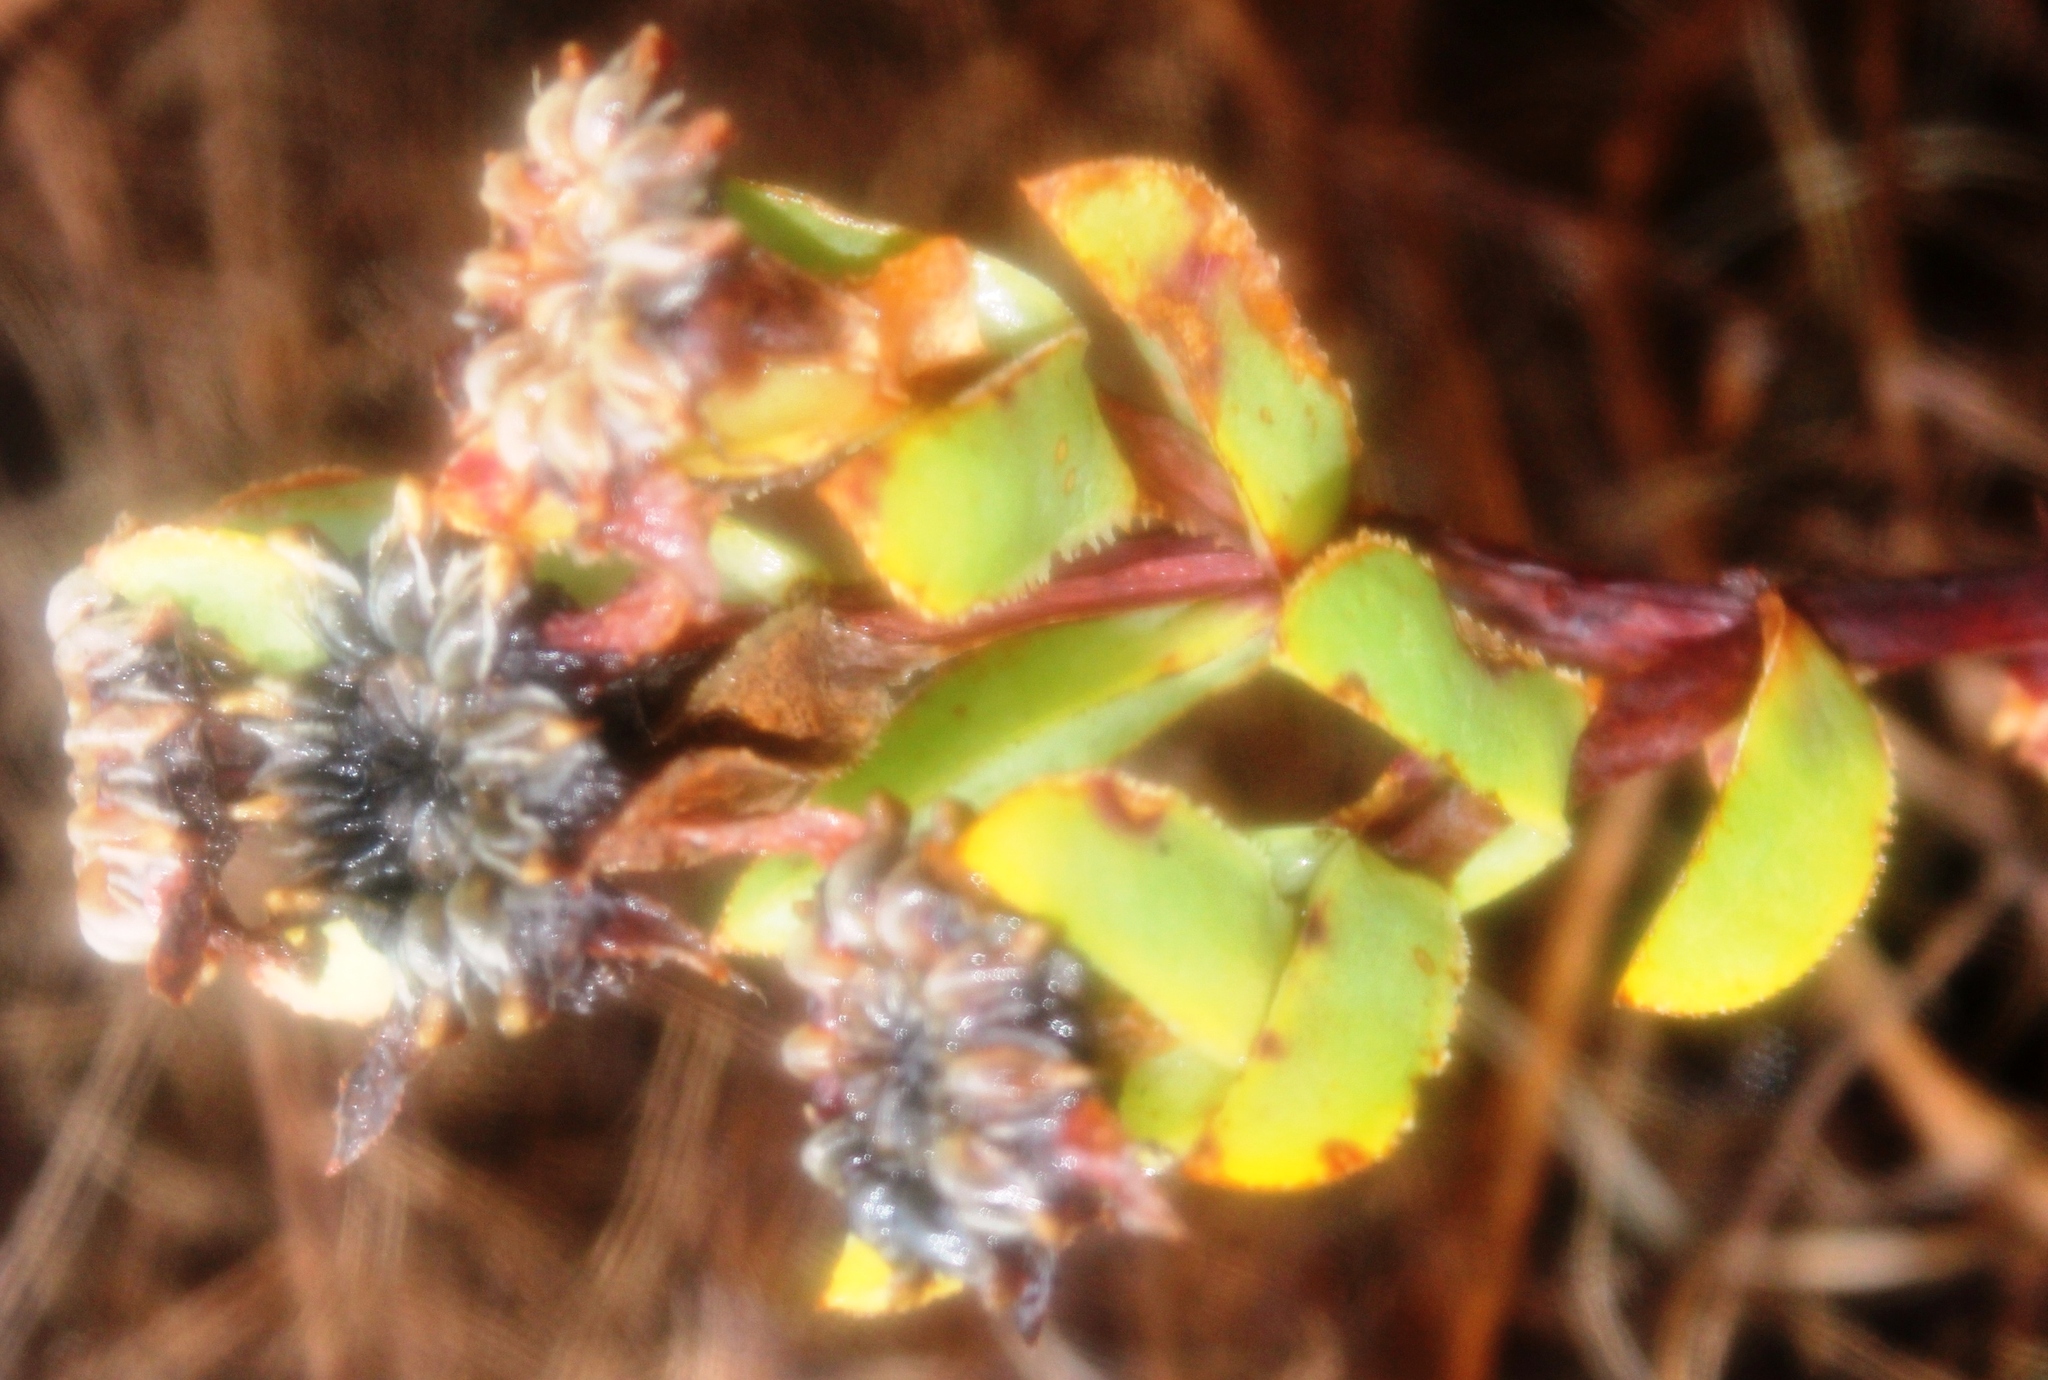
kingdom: Plantae
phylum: Tracheophyta
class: Magnoliopsida
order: Caryophyllales
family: Aizoaceae
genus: Erepsia
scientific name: Erepsia lacera
